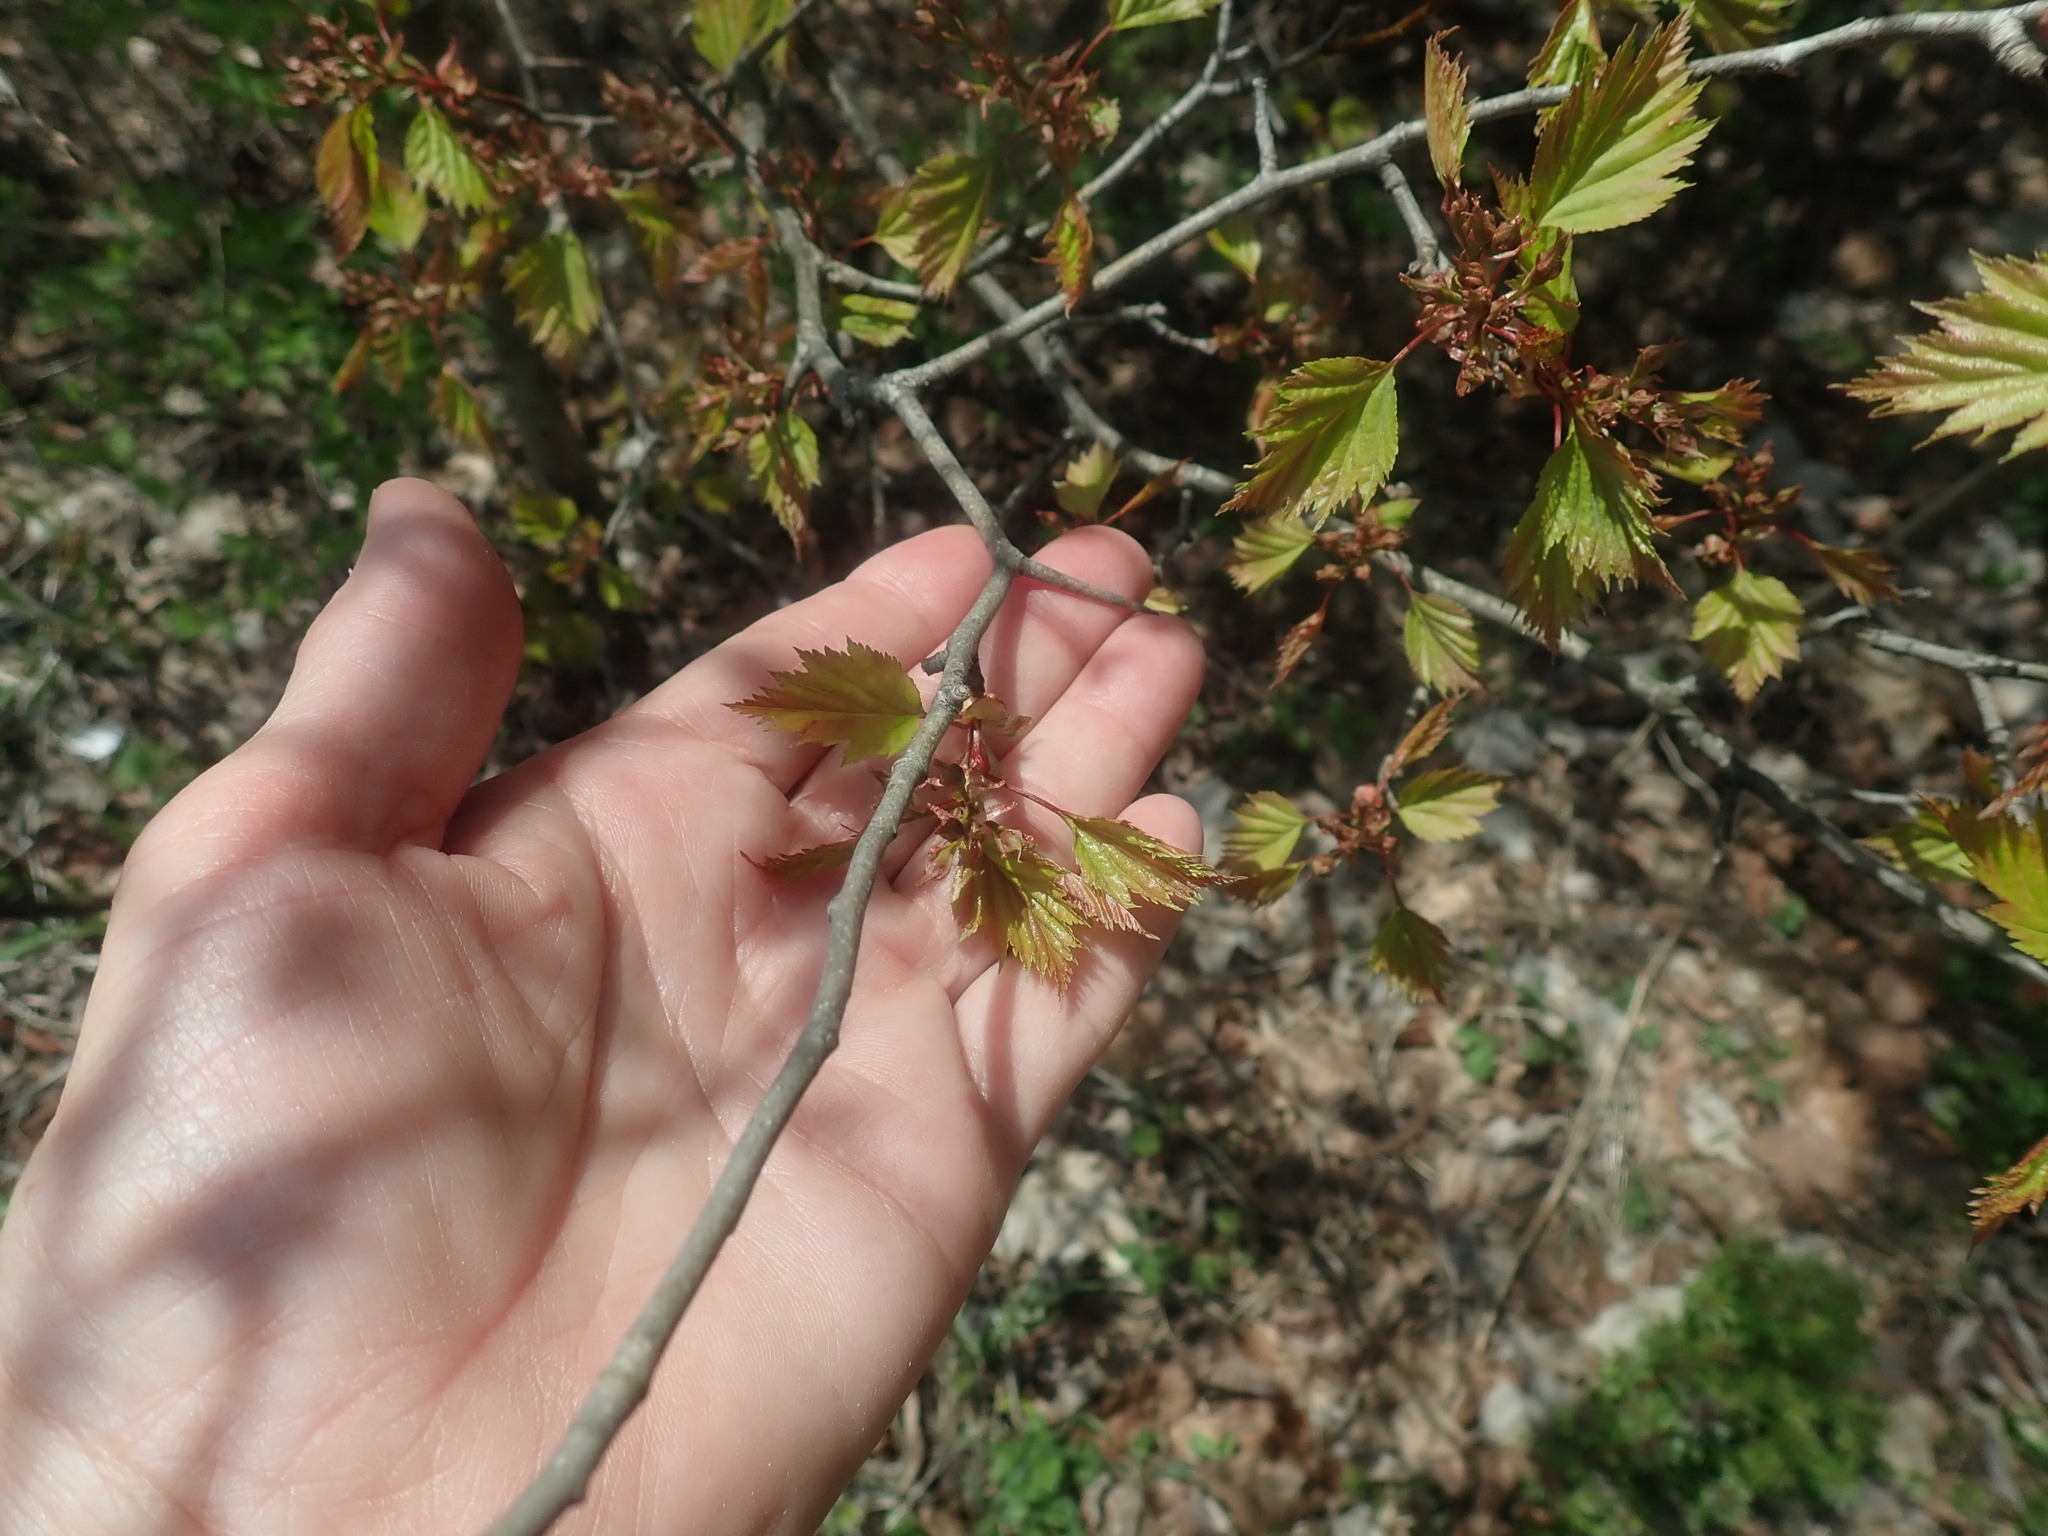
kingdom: Plantae
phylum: Tracheophyta
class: Magnoliopsida
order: Rosales
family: Rosaceae
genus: Crataegus
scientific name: Crataegus
